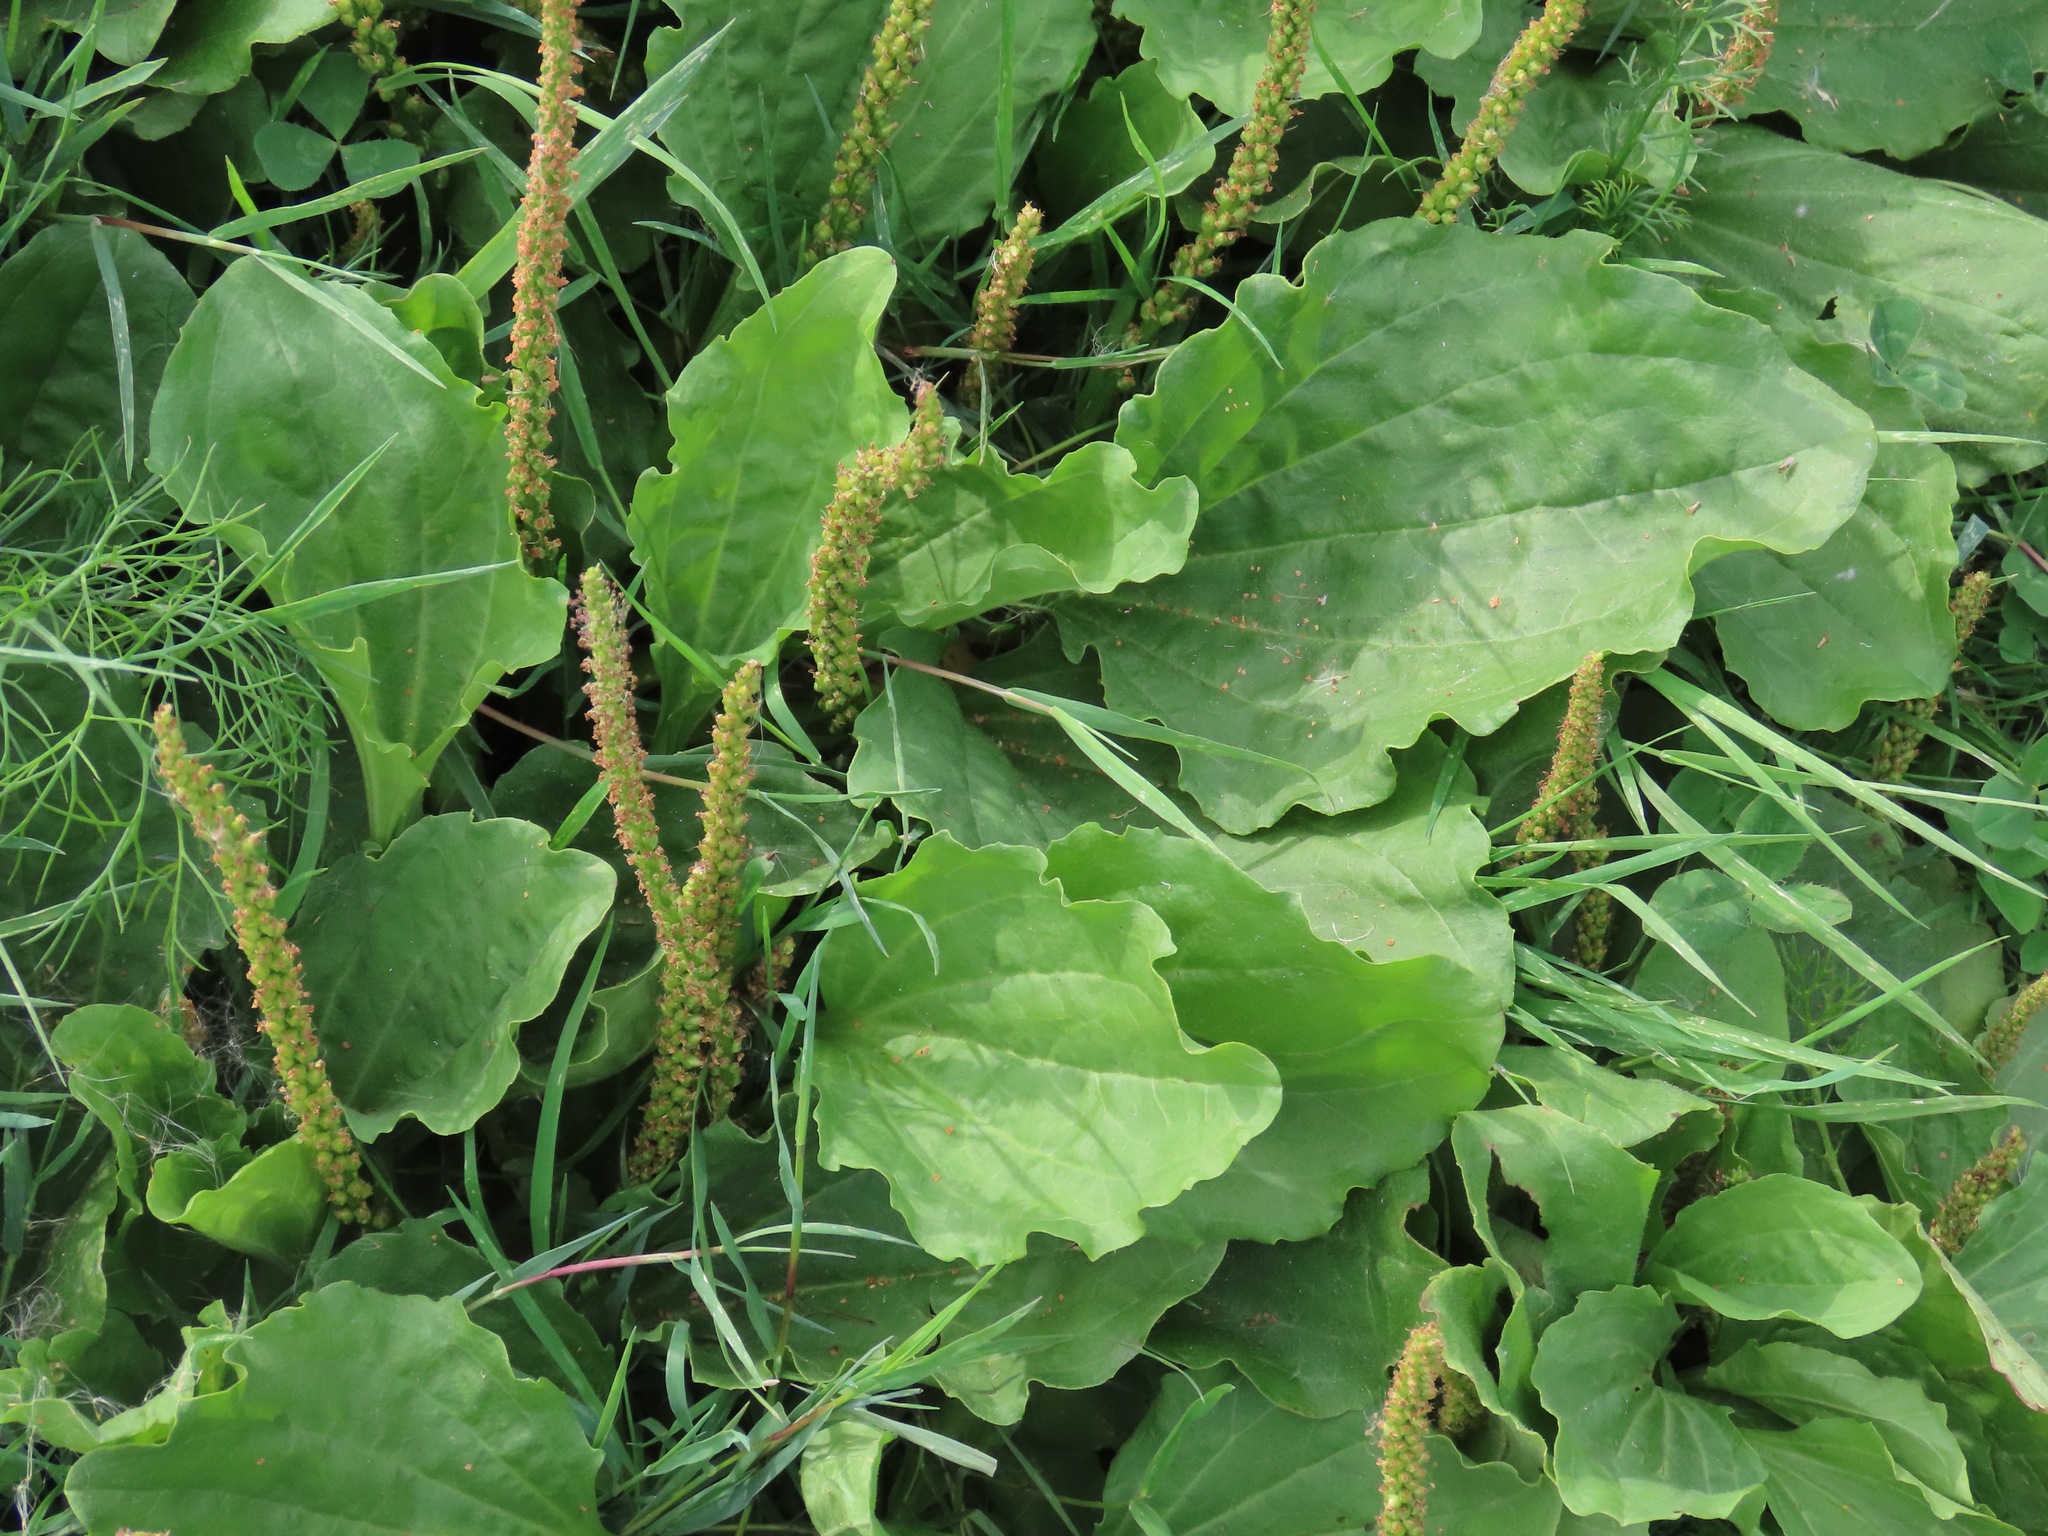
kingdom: Plantae
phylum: Tracheophyta
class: Magnoliopsida
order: Lamiales
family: Plantaginaceae
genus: Plantago
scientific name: Plantago major
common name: Common plantain
